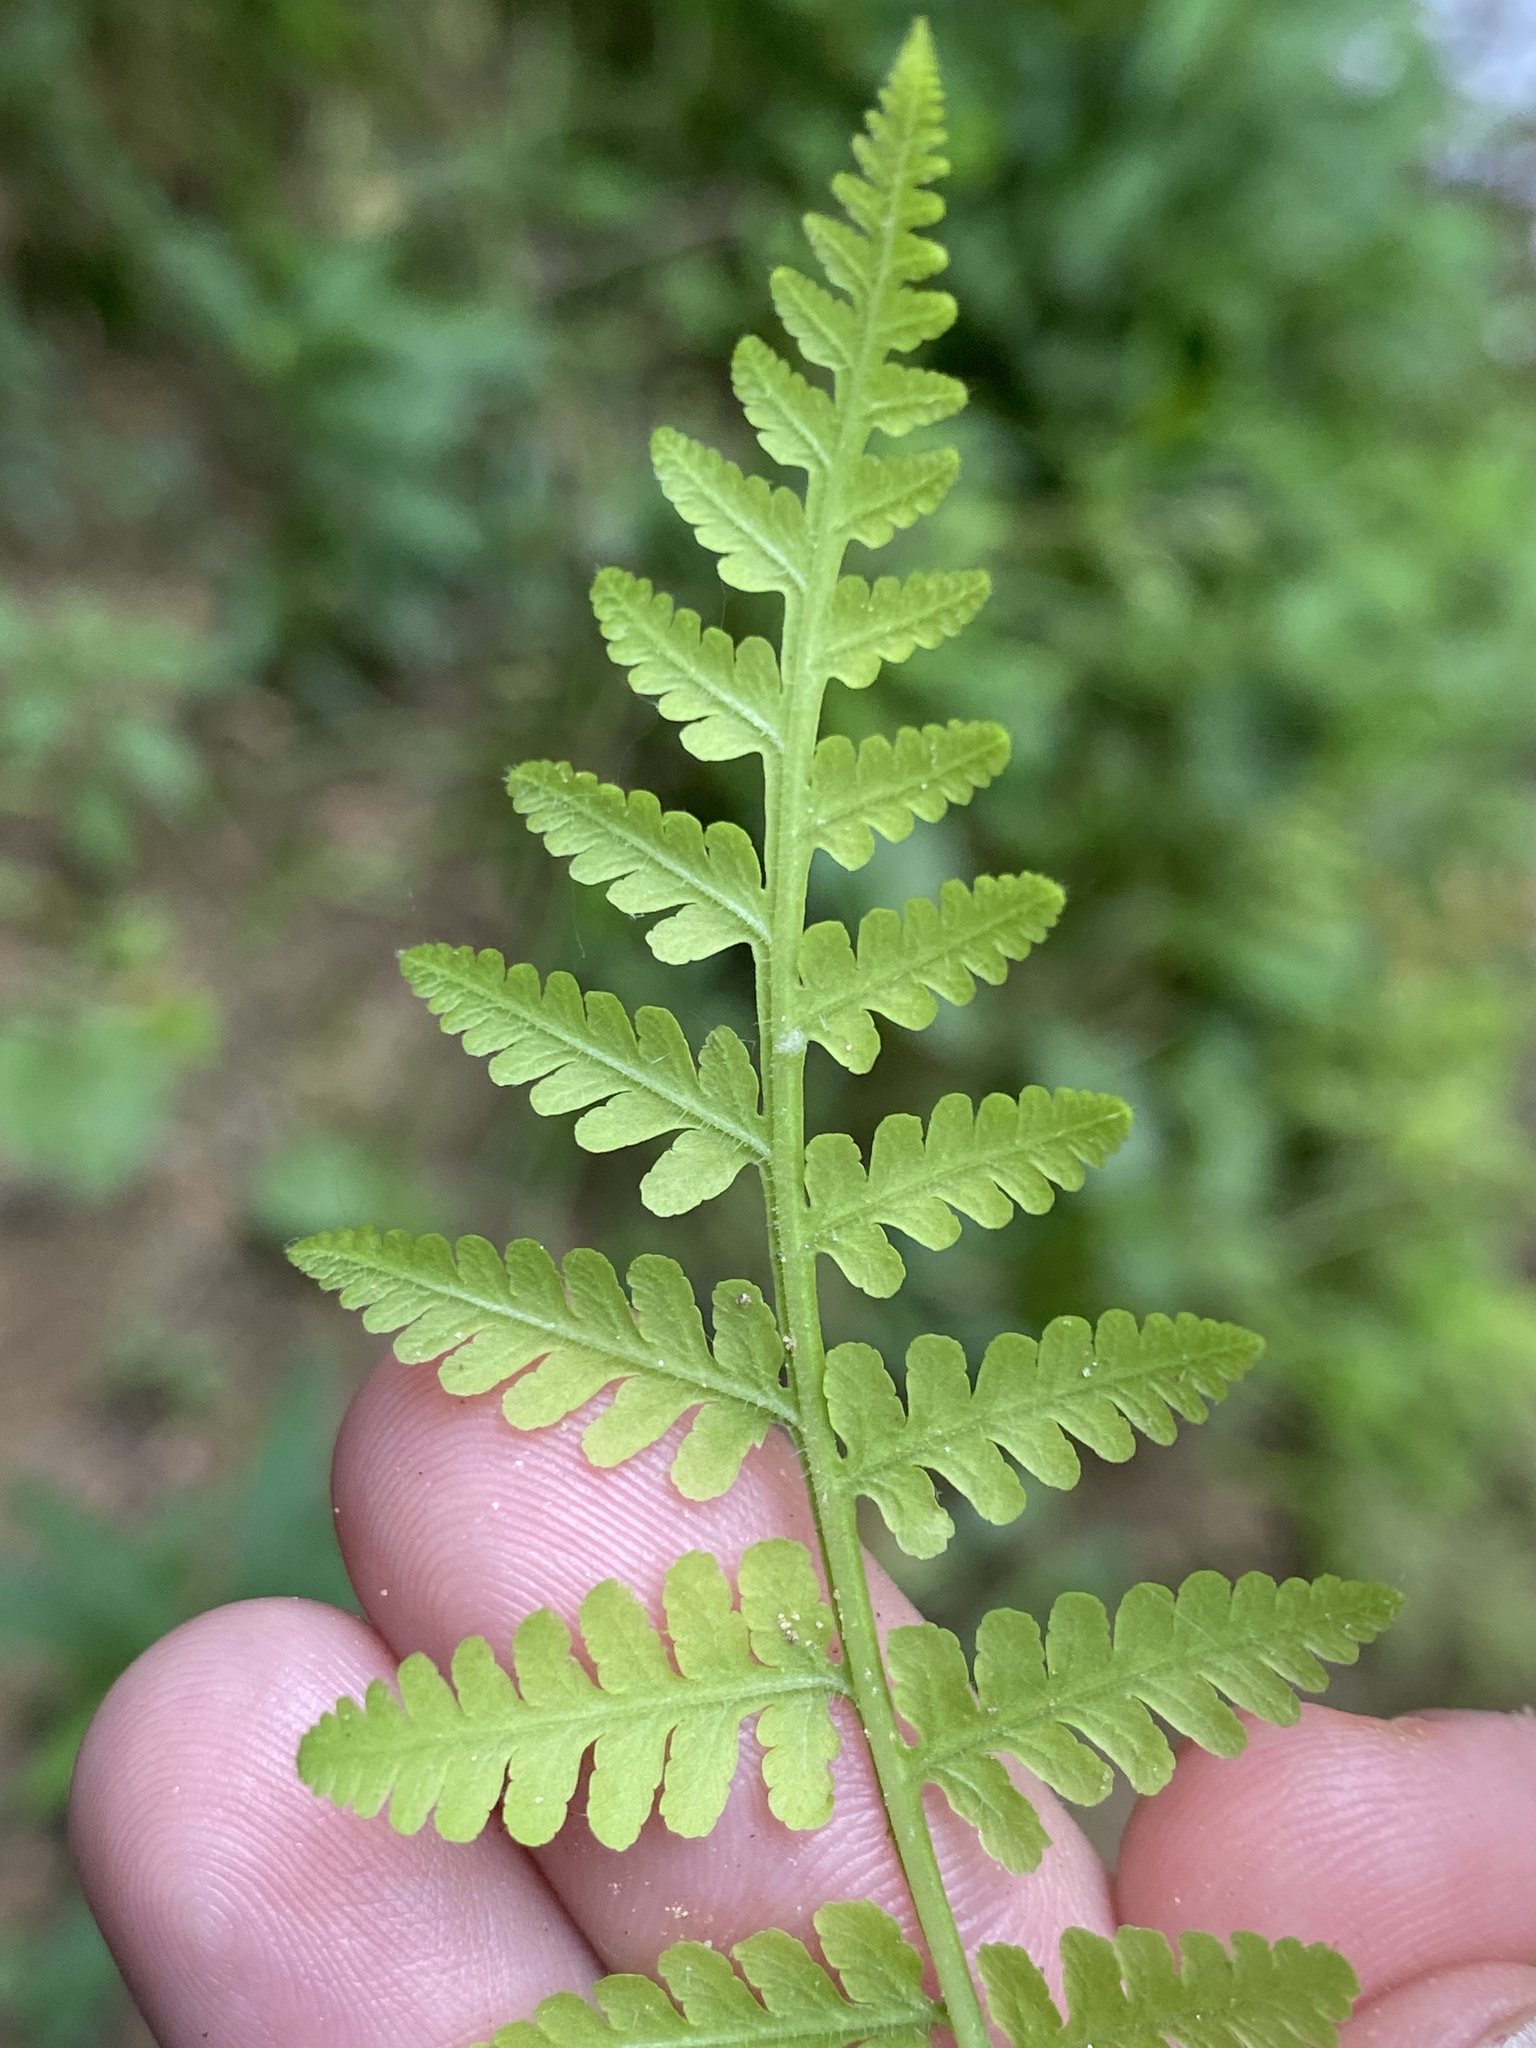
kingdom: Plantae
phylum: Tracheophyta
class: Polypodiopsida
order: Polypodiales
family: Thelypteridaceae
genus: Macrothelypteris
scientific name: Macrothelypteris torresiana
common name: Swordfern
